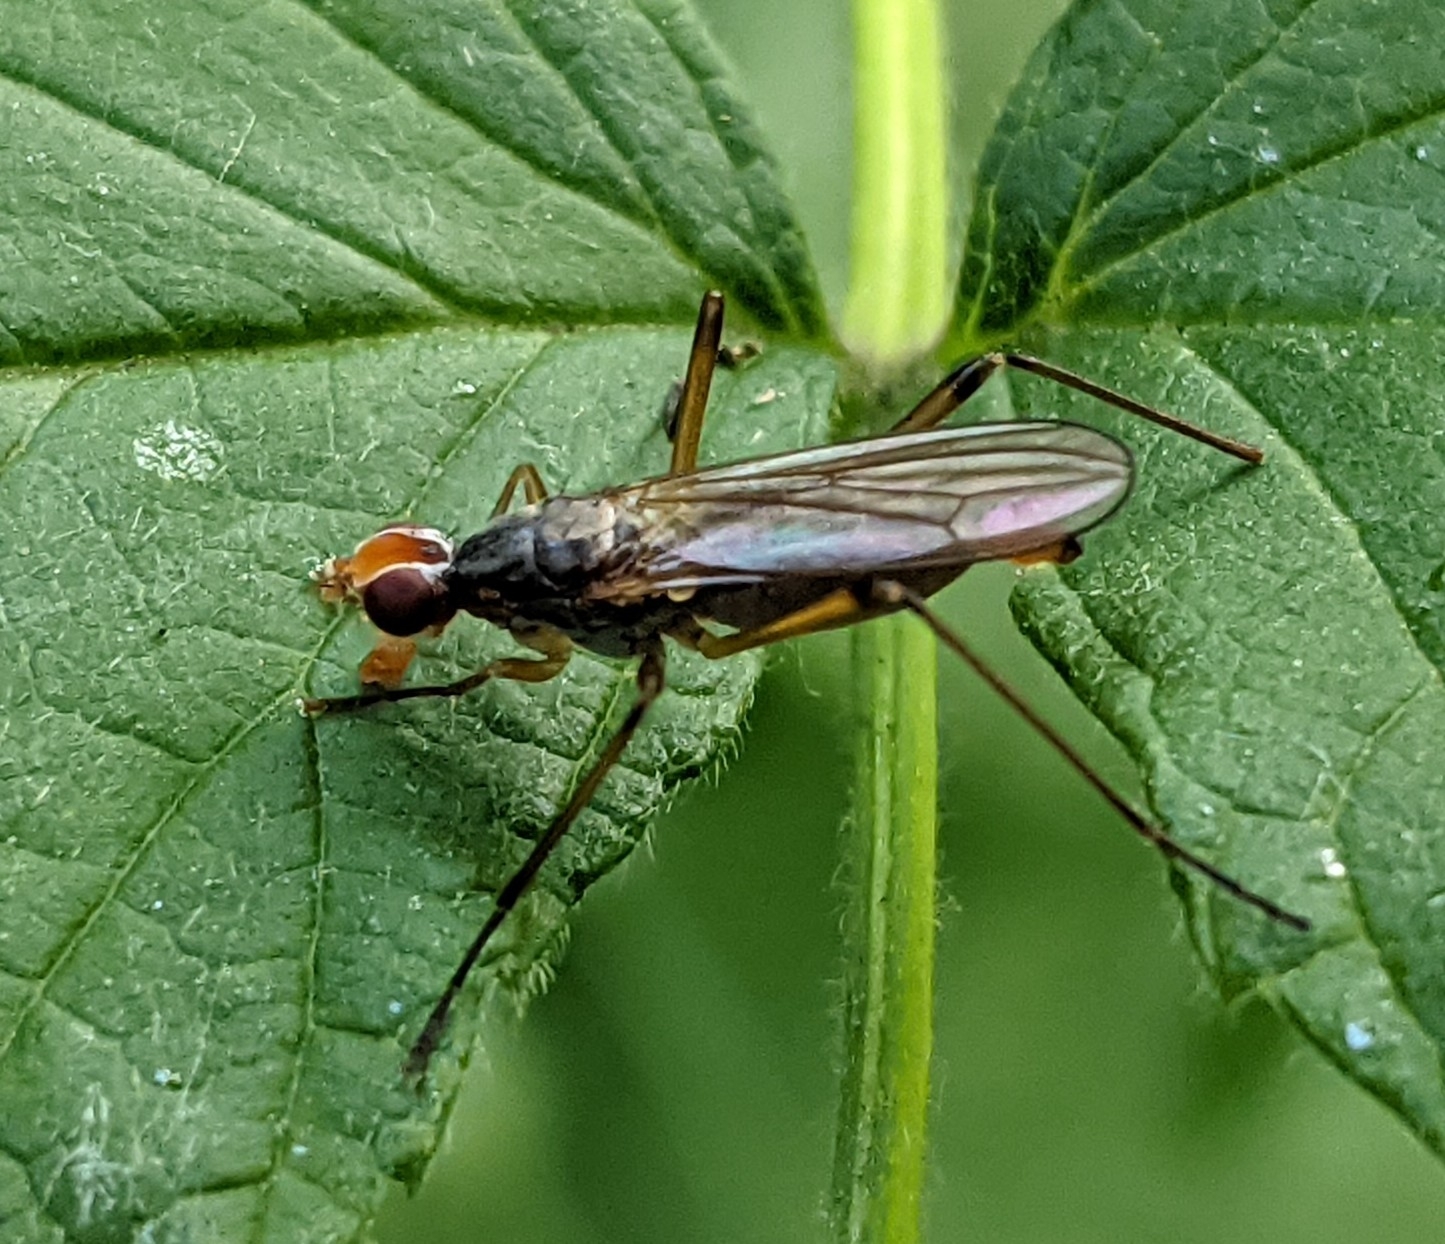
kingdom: Animalia
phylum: Arthropoda
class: Insecta
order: Diptera
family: Micropezidae
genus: Compsobata
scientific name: Compsobata cibaria
